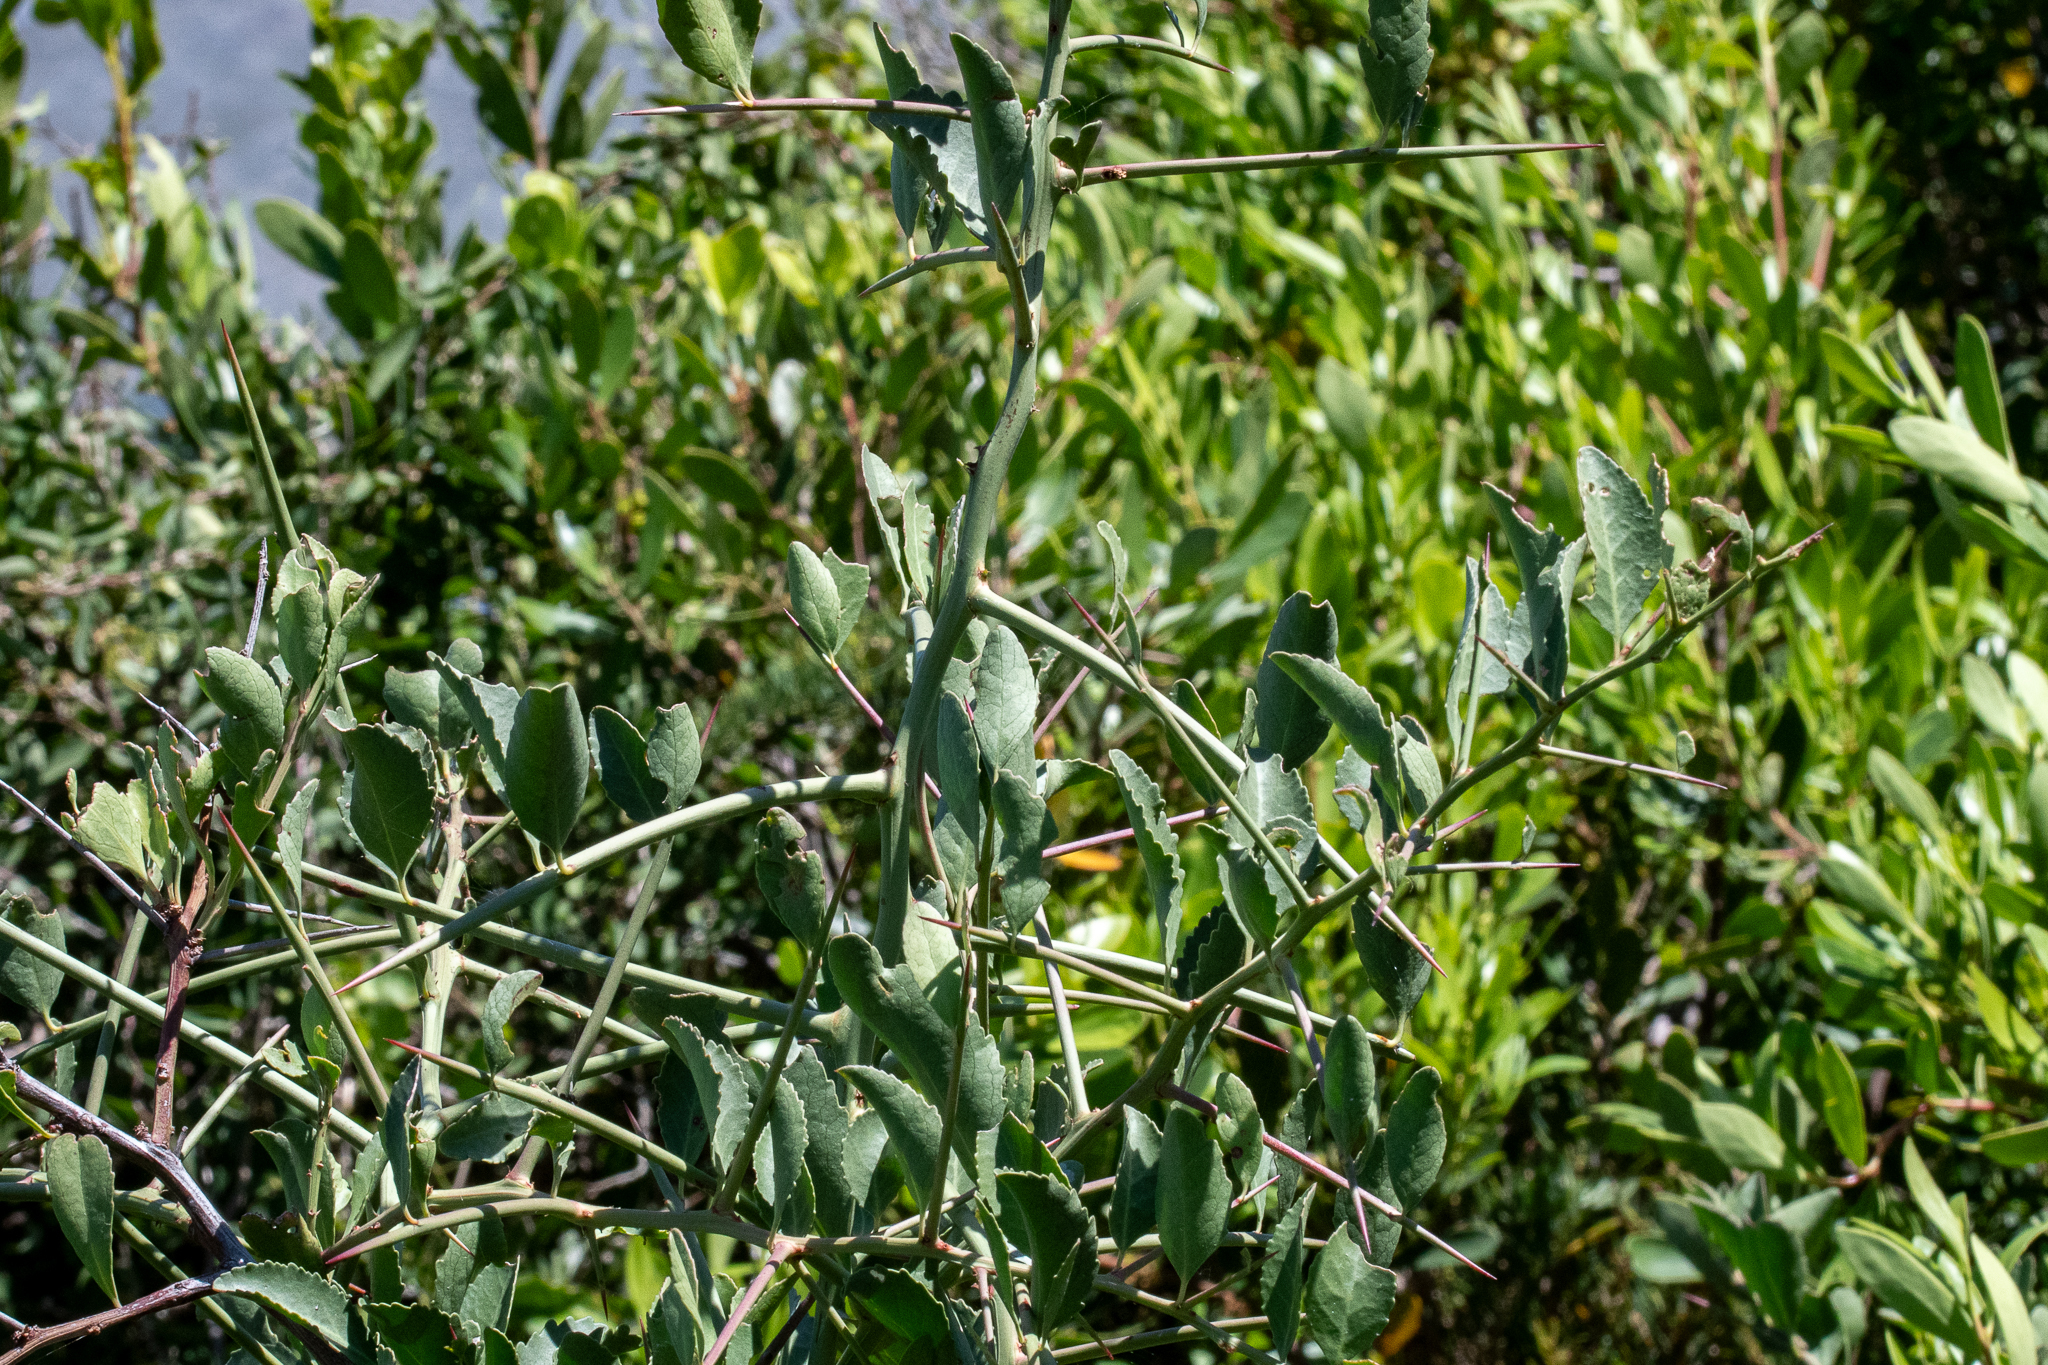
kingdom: Plantae
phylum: Tracheophyta
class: Magnoliopsida
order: Celastrales
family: Celastraceae
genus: Gymnosporia
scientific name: Gymnosporia buxifolia
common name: Common spike-thorn
